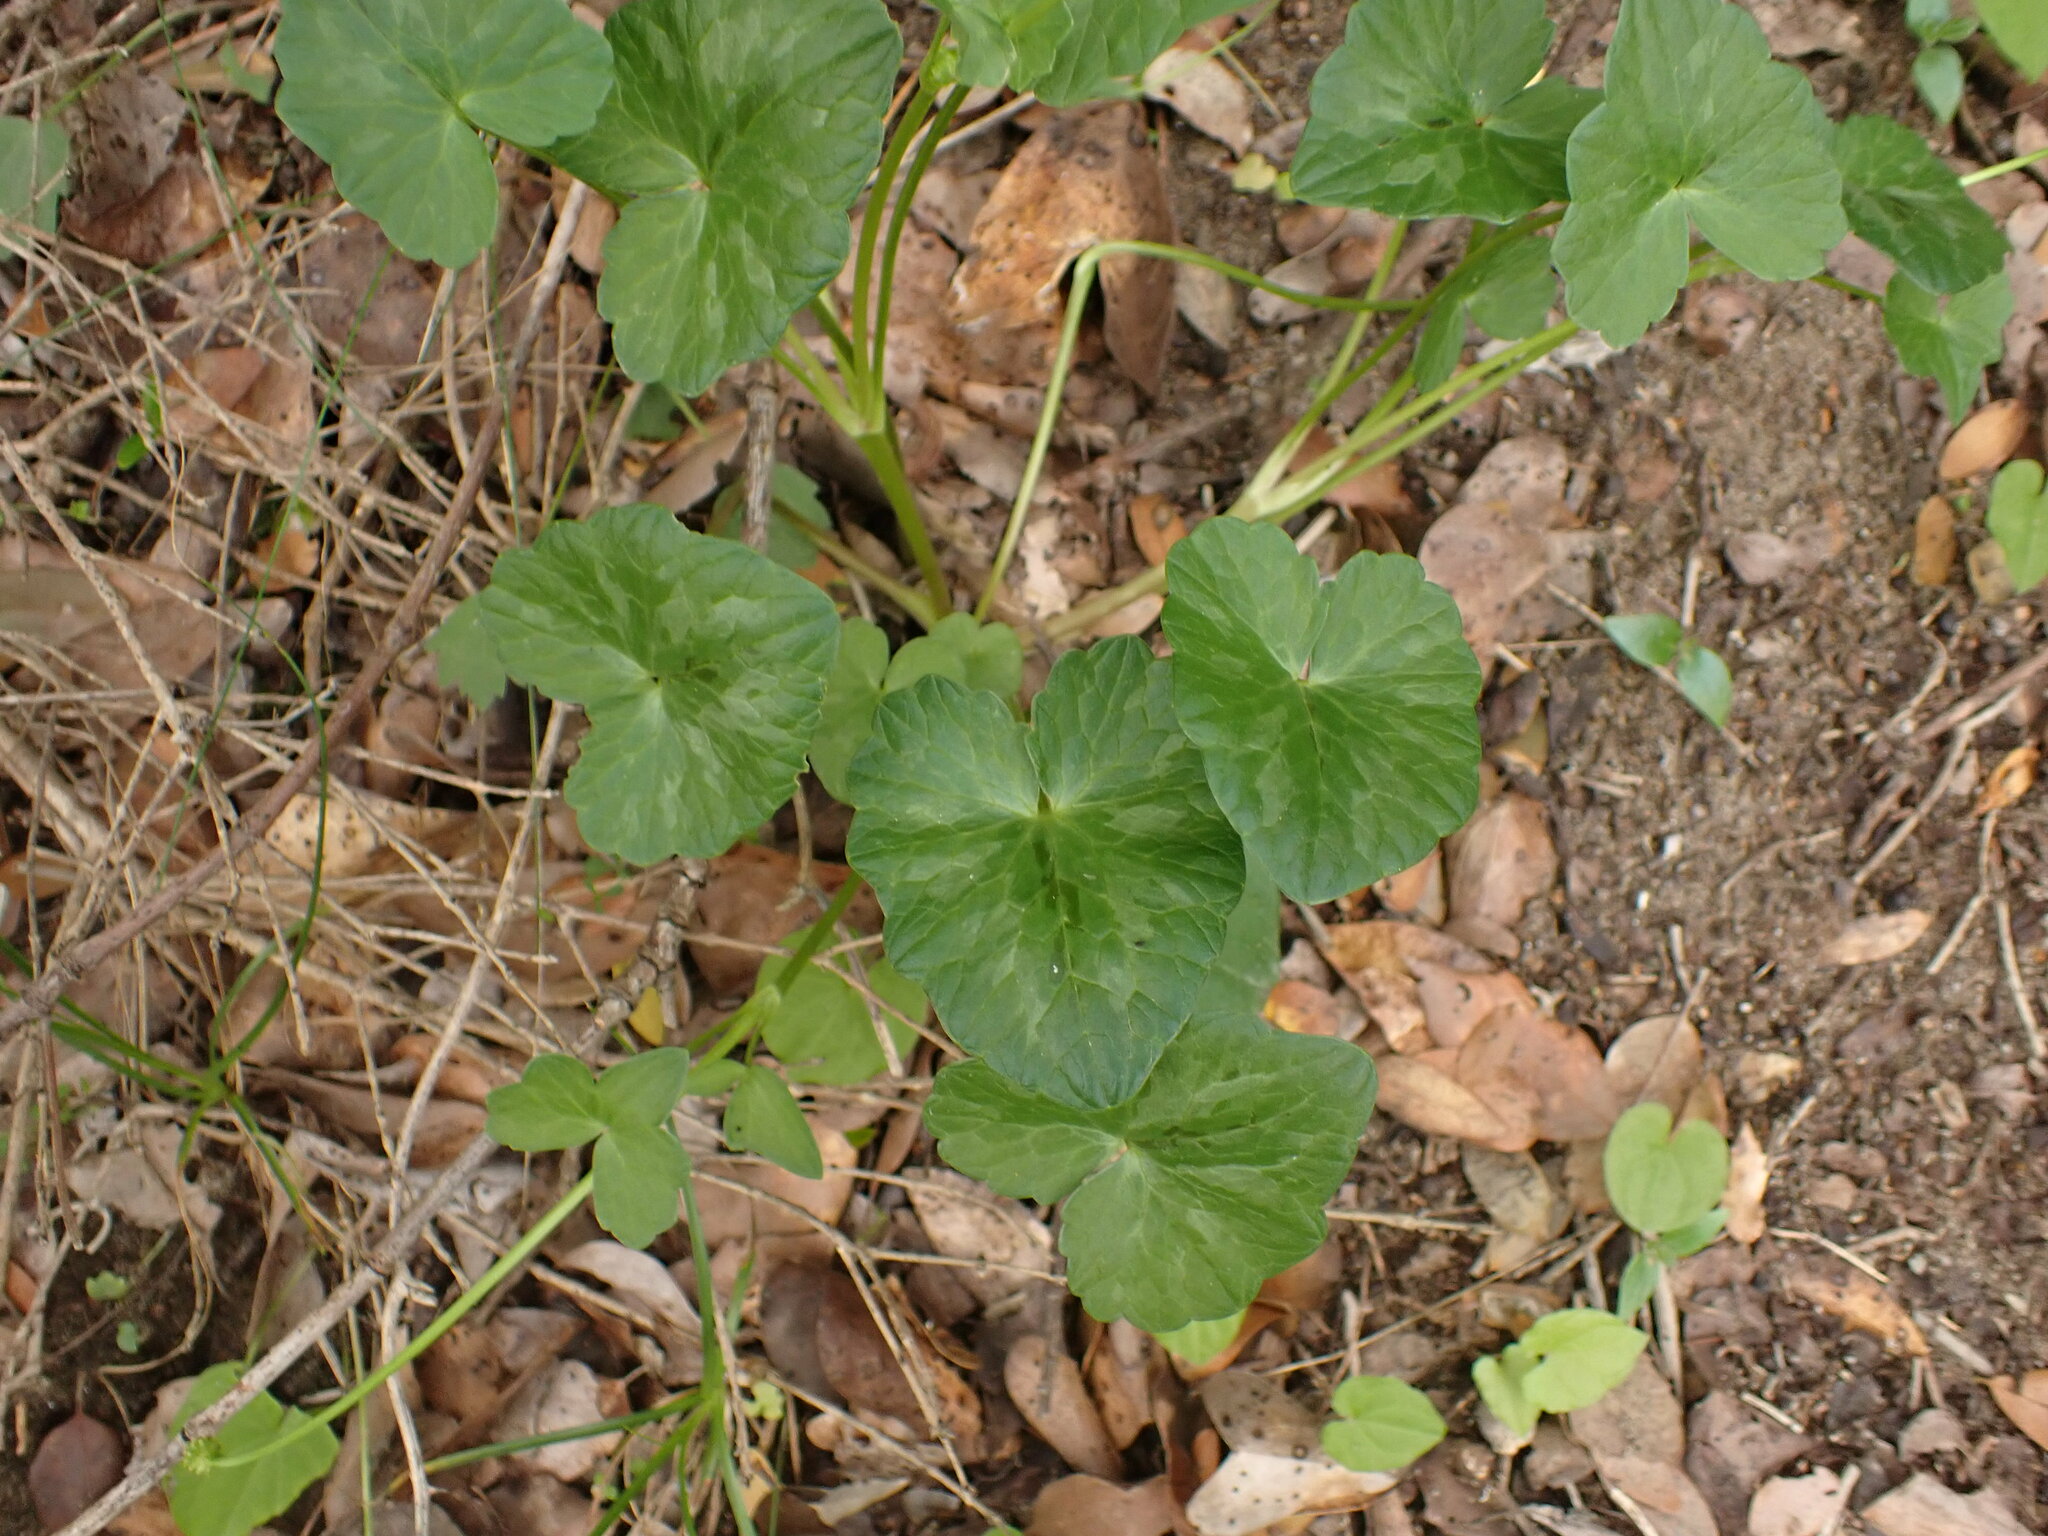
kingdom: Plantae
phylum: Tracheophyta
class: Magnoliopsida
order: Ranunculales
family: Ranunculaceae
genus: Ficaria
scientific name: Ficaria verna
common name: Lesser celandine
